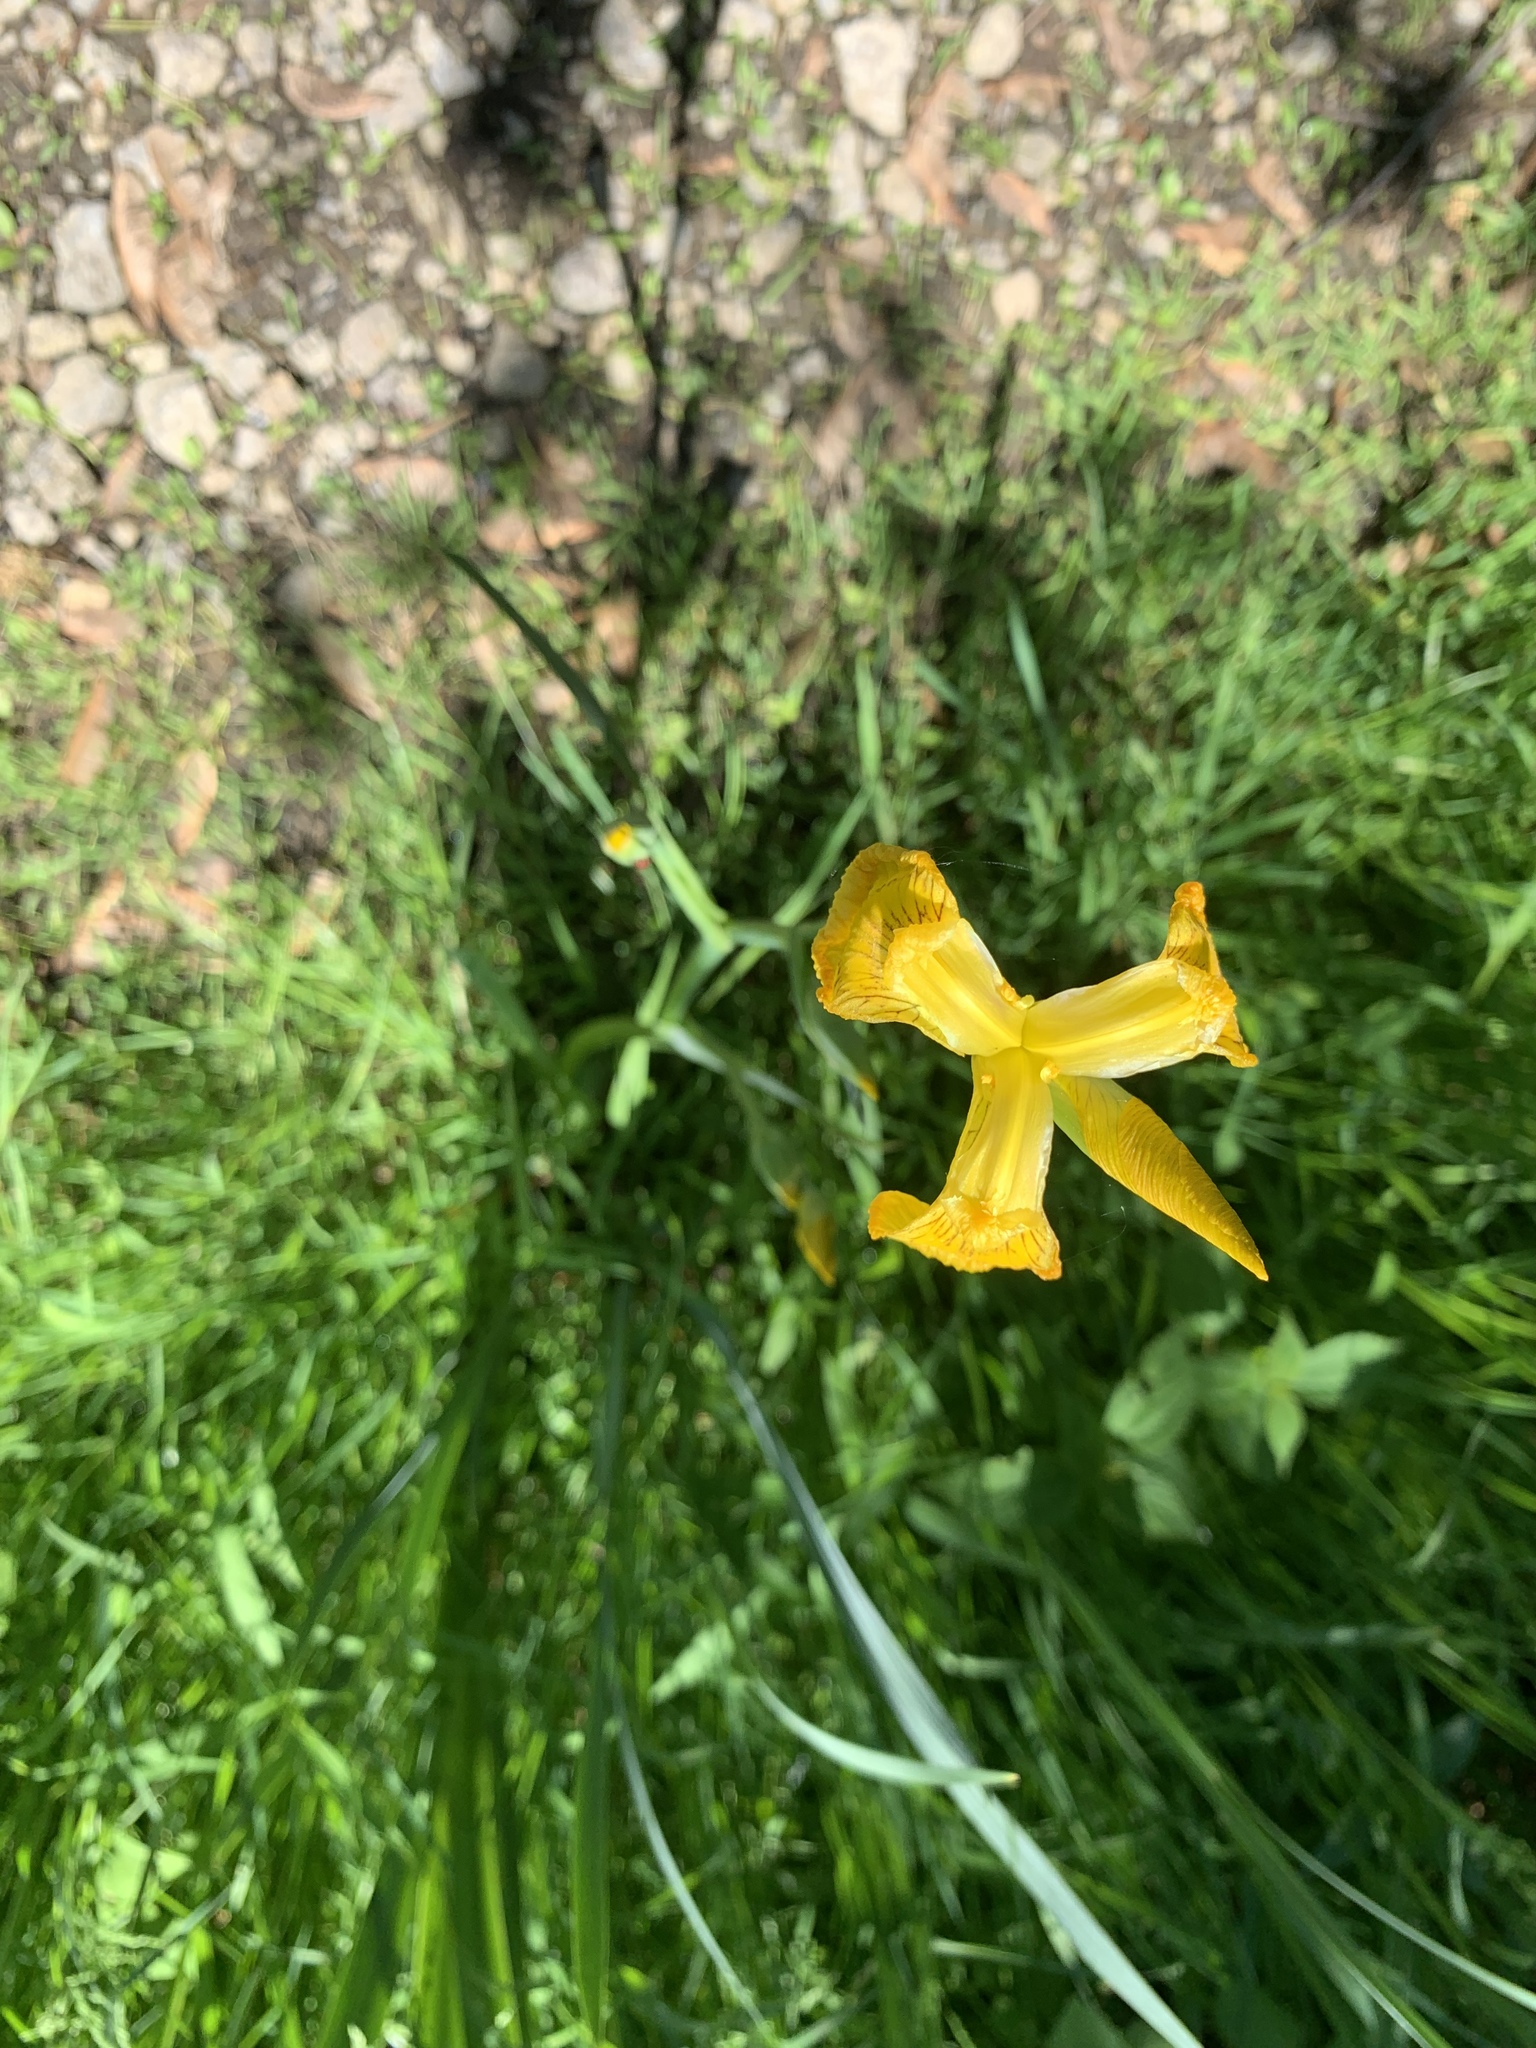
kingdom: Plantae
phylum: Tracheophyta
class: Liliopsida
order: Asparagales
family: Iridaceae
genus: Iris
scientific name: Iris pseudacorus
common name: Yellow flag
